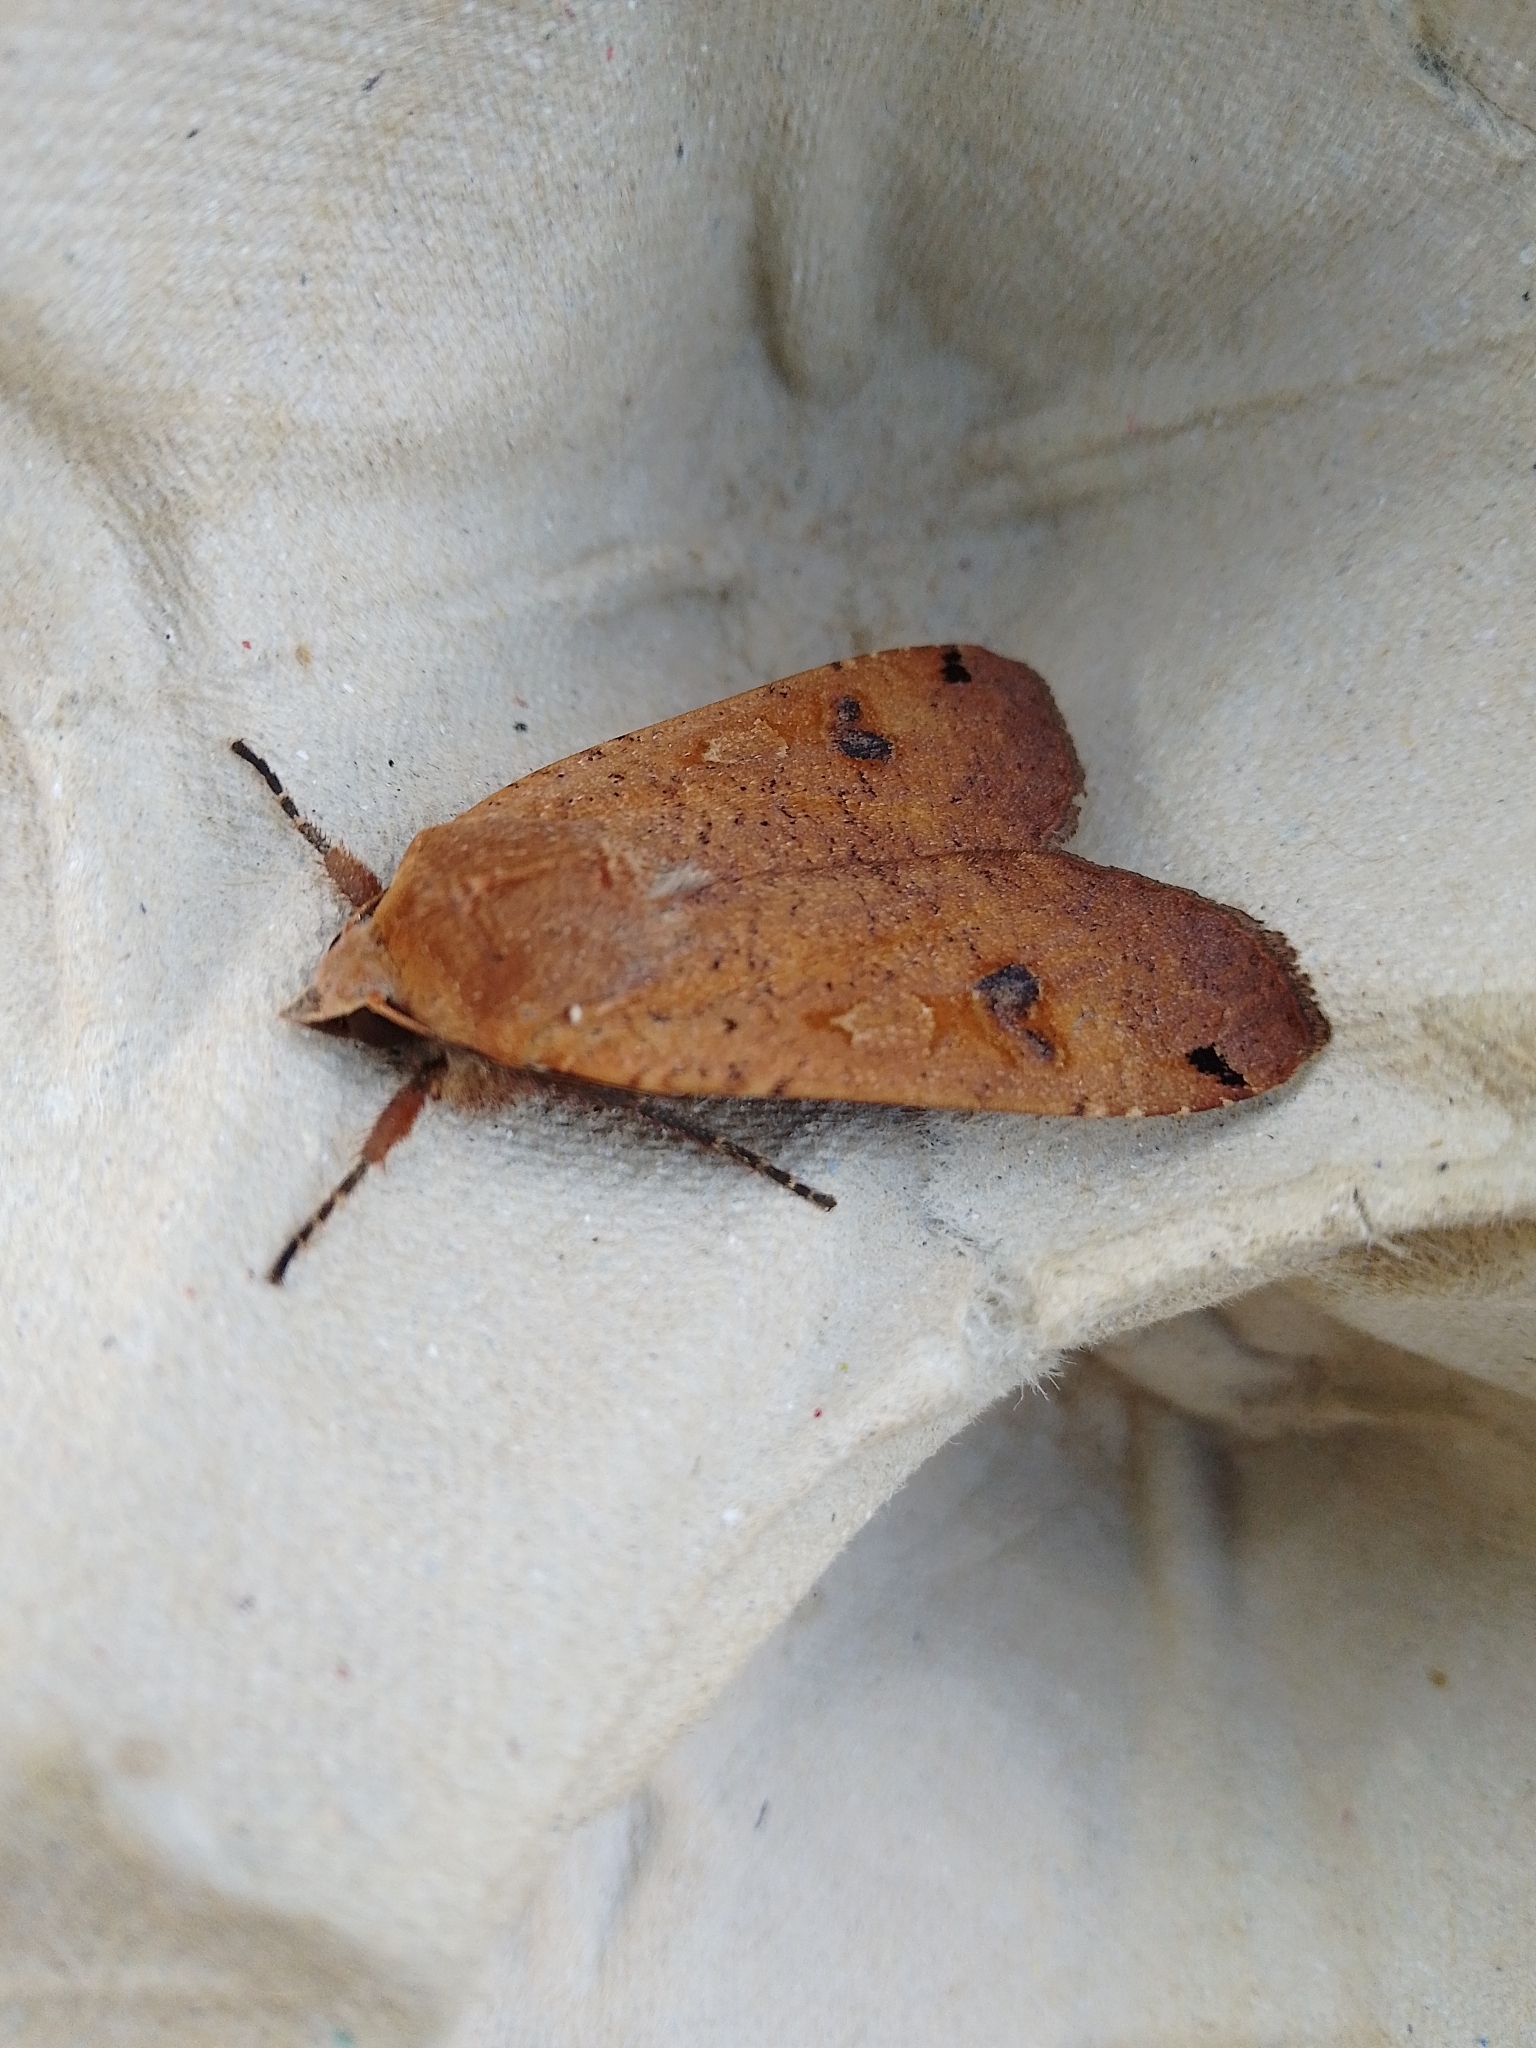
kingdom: Animalia
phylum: Arthropoda
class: Insecta
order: Lepidoptera
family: Noctuidae
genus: Noctua
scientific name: Noctua pronuba
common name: Large yellow underwing
